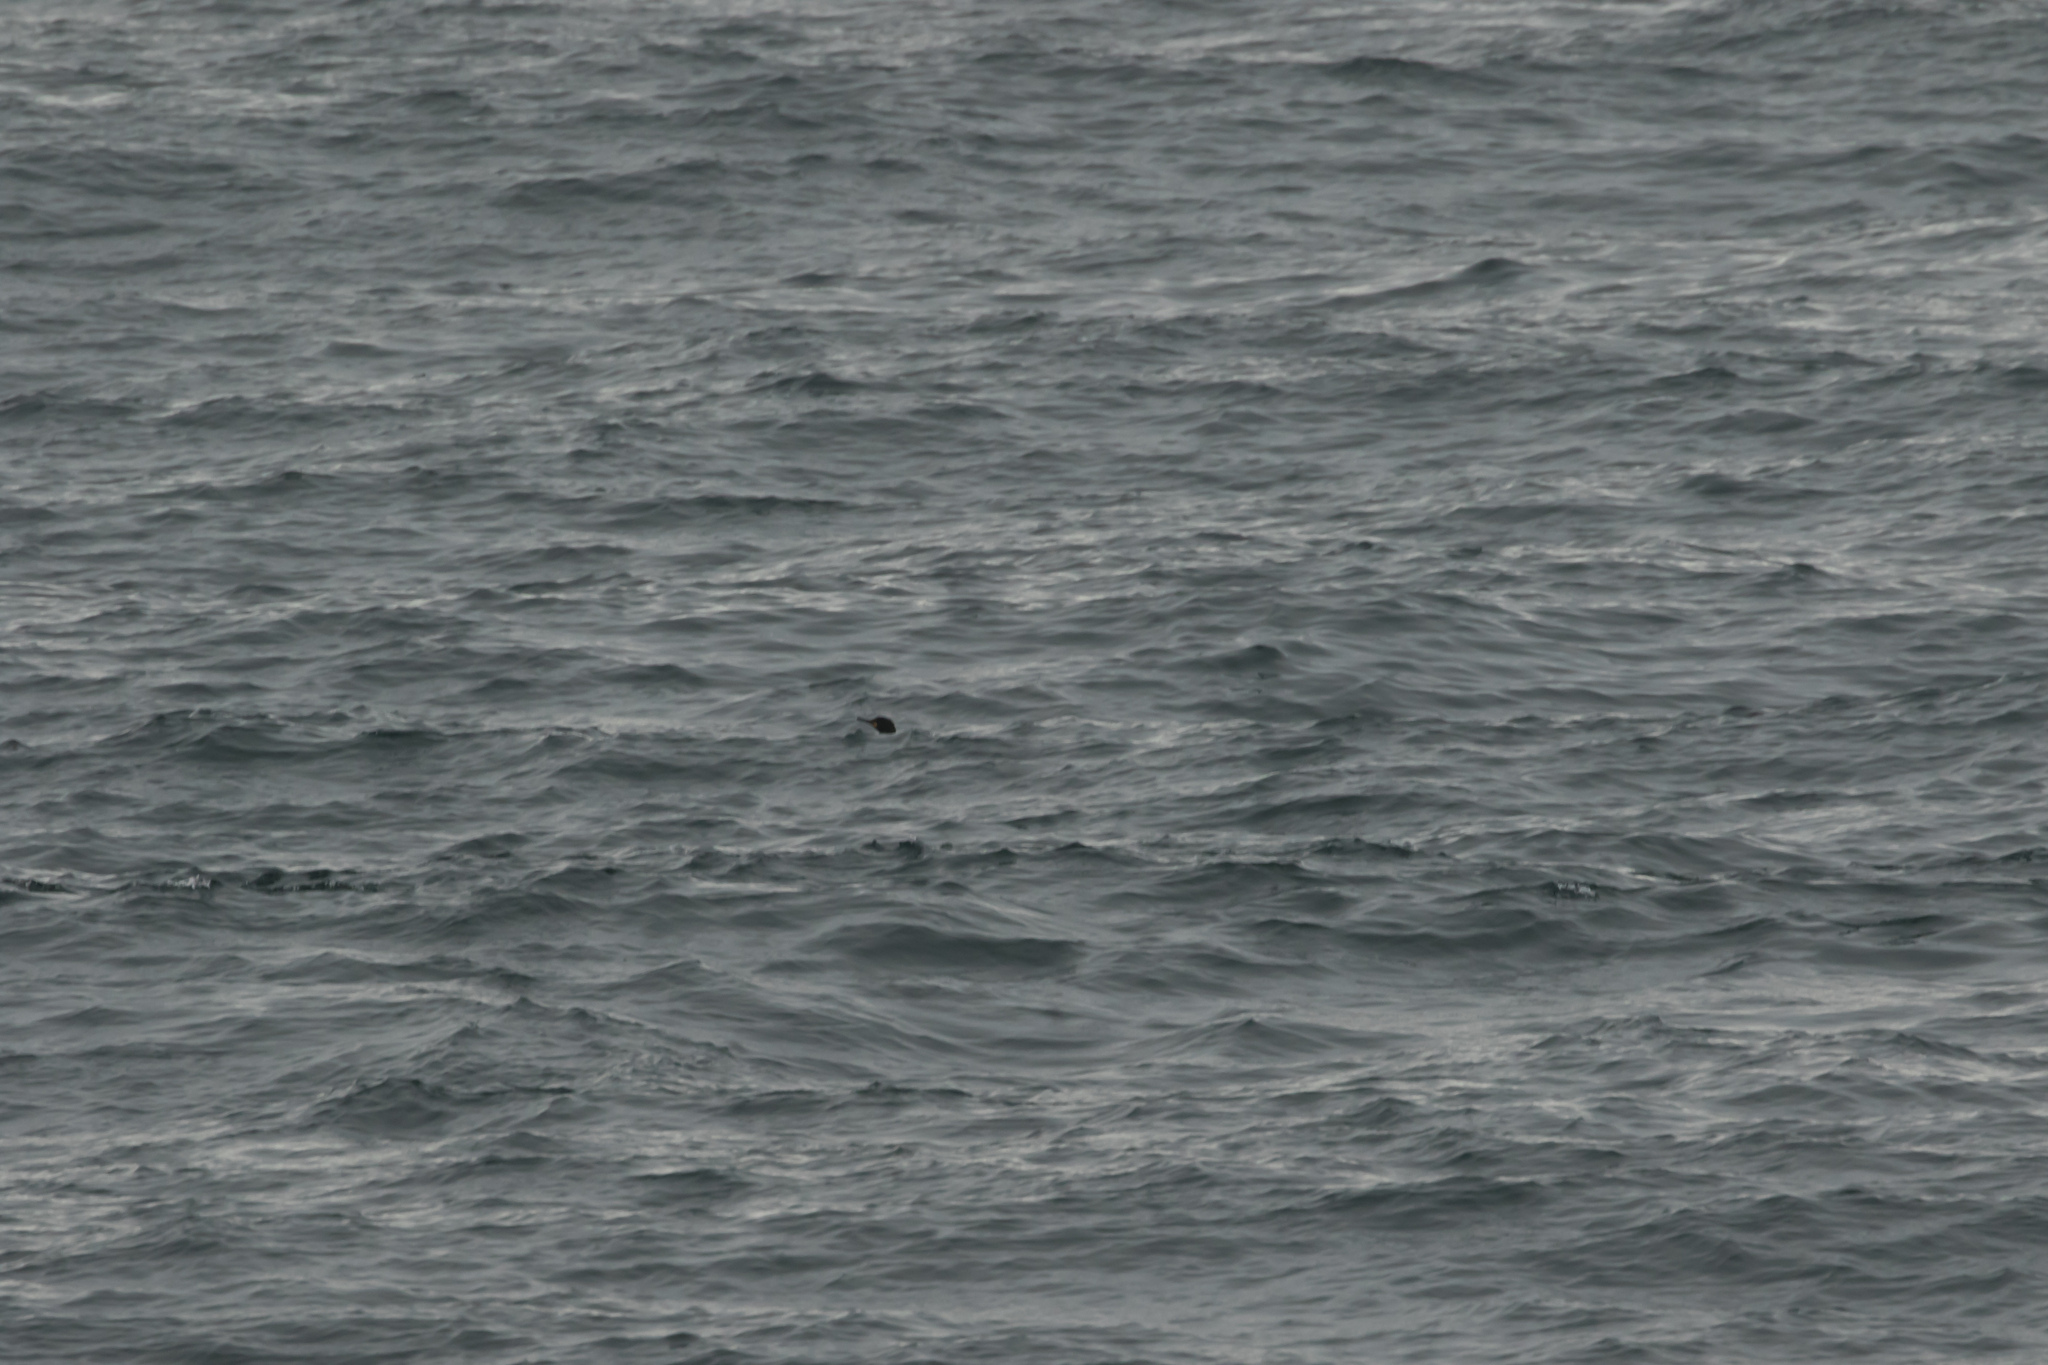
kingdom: Animalia
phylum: Chordata
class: Aves
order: Suliformes
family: Phalacrocoracidae
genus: Phalacrocorax
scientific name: Phalacrocorax aristotelis
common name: European shag
